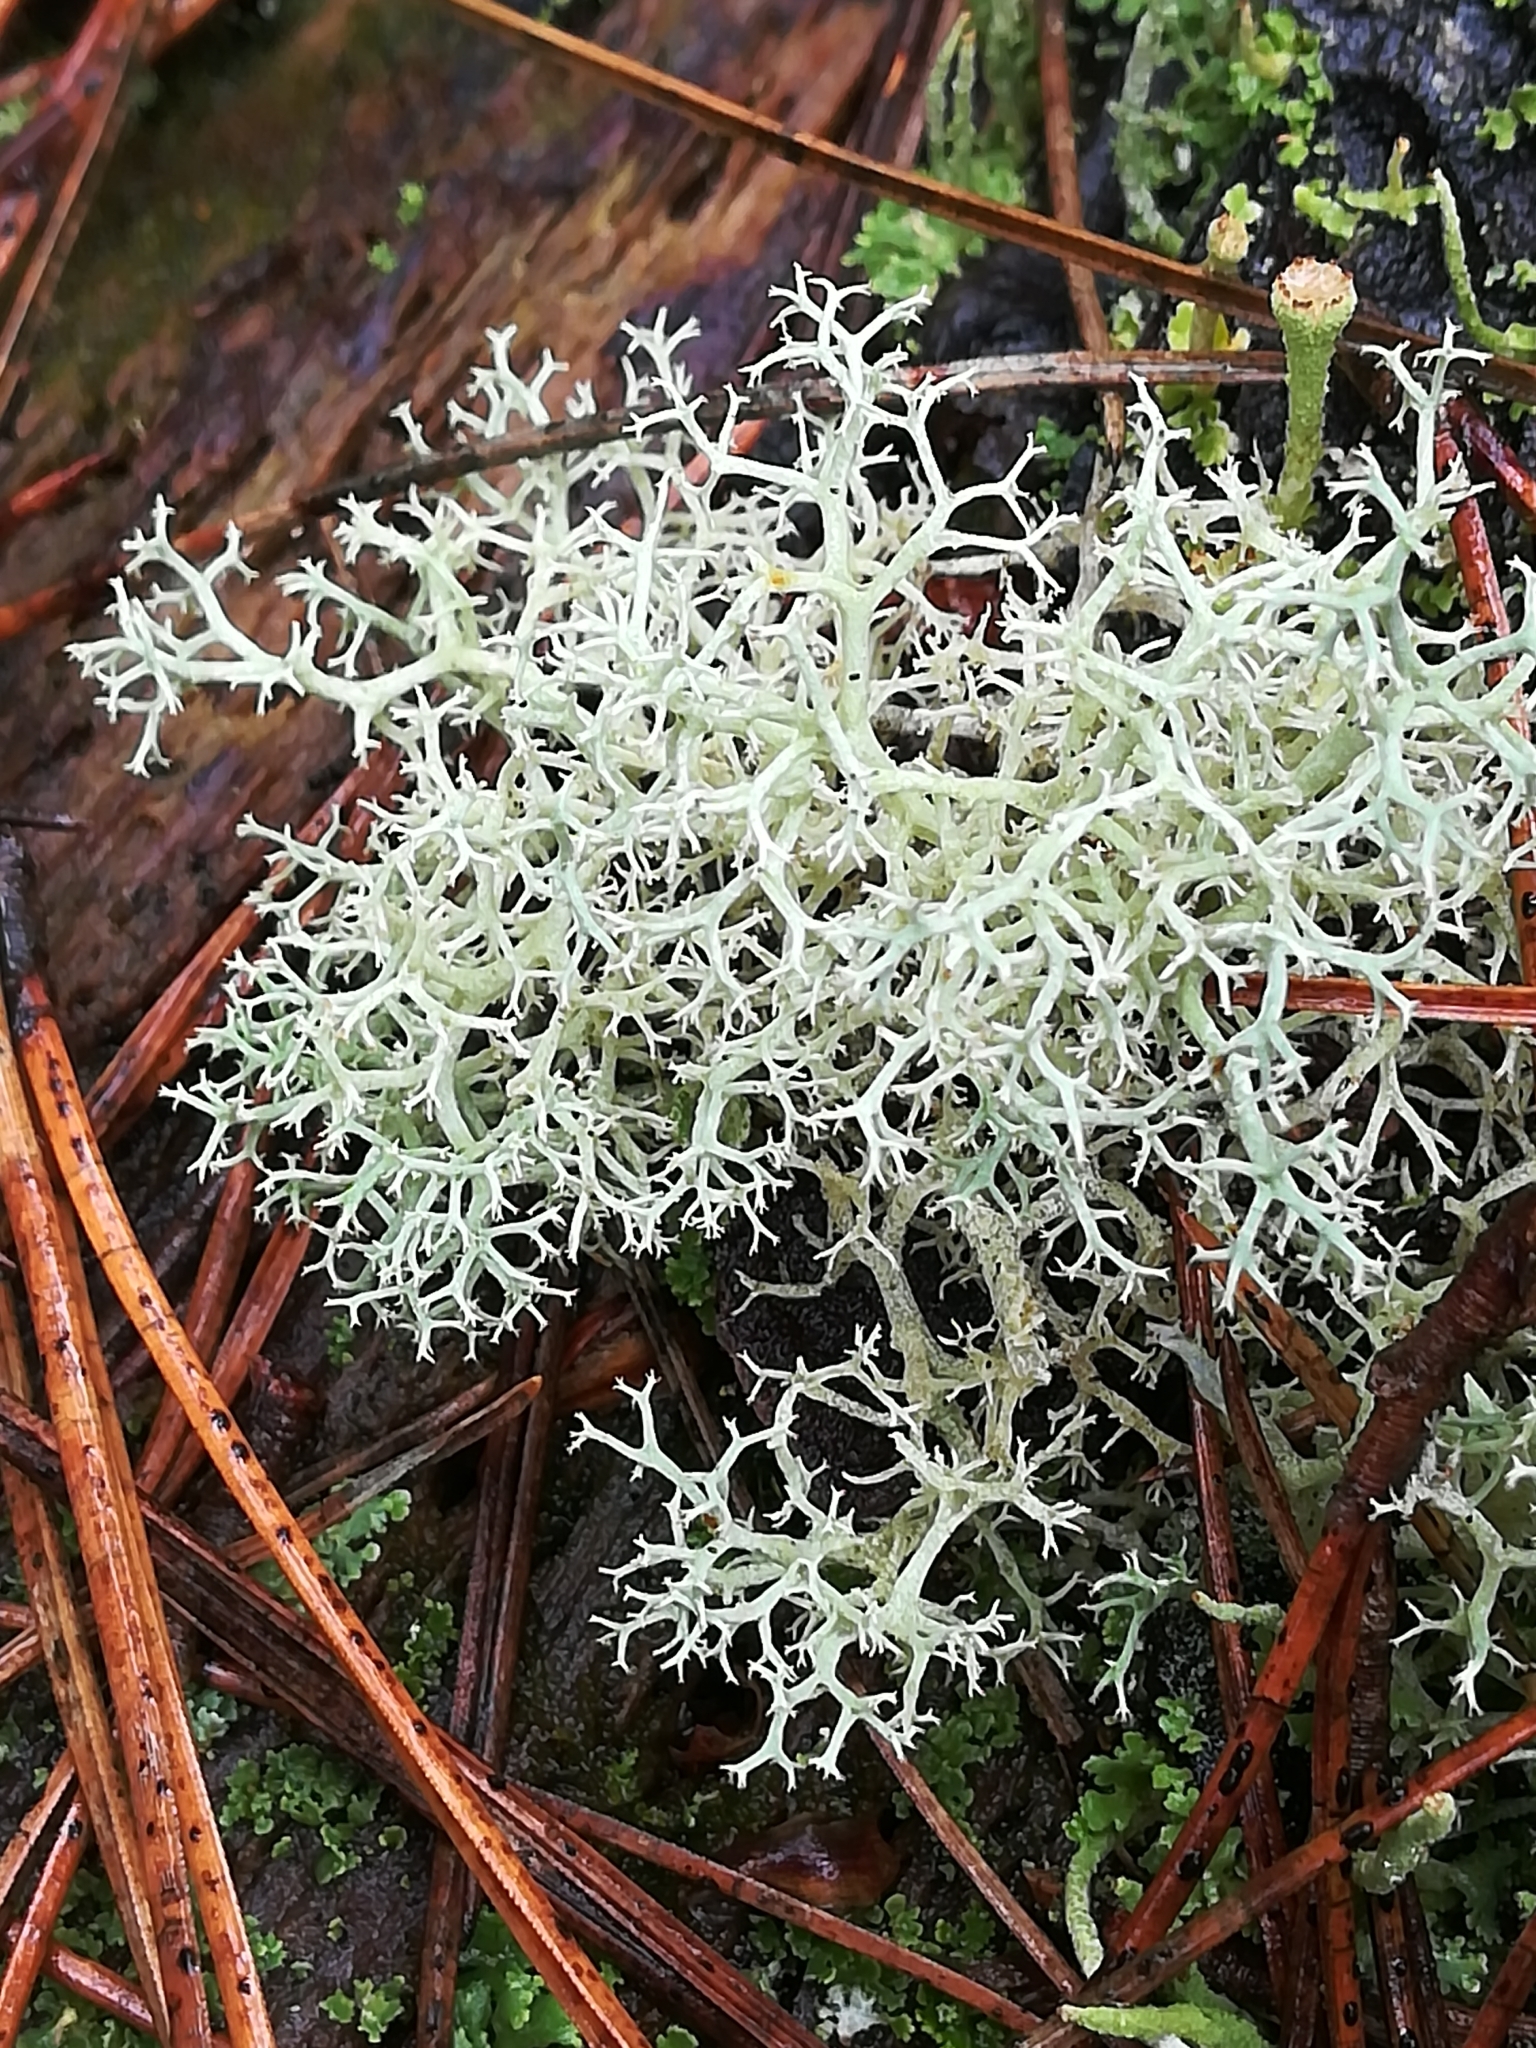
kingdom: Fungi
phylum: Ascomycota
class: Lecanoromycetes
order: Lecanorales
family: Cladoniaceae
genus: Cladonia
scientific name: Cladonia portentosa
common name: Reindeer lichen
